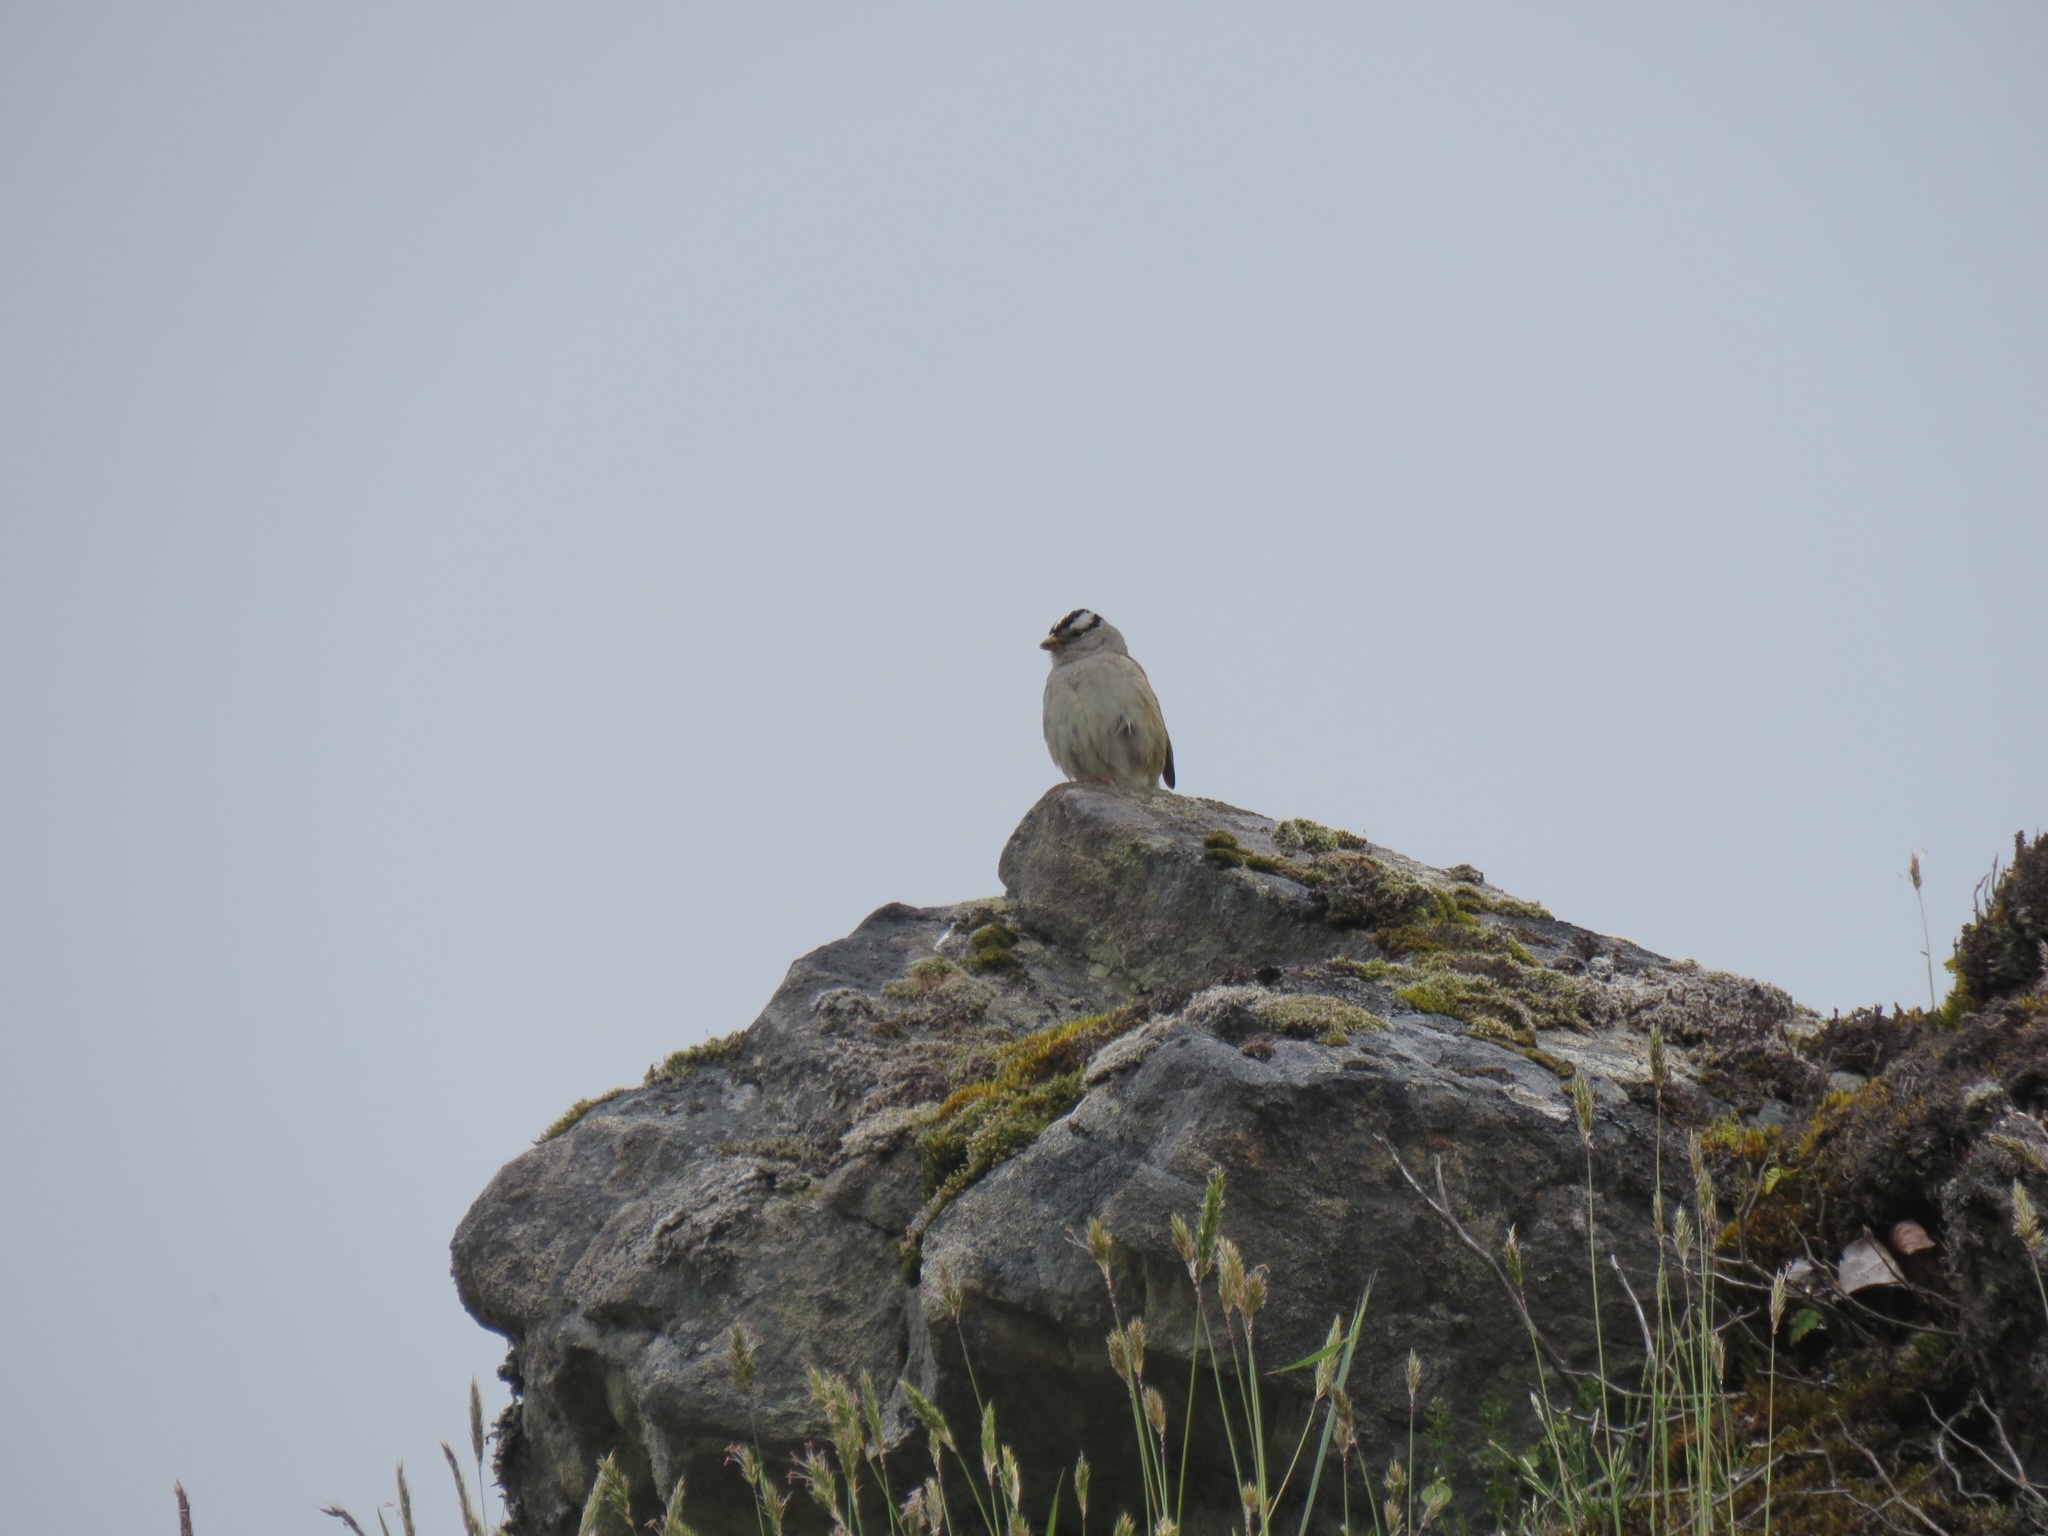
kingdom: Animalia
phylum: Chordata
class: Aves
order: Passeriformes
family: Passerellidae
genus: Zonotrichia
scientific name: Zonotrichia leucophrys
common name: White-crowned sparrow
